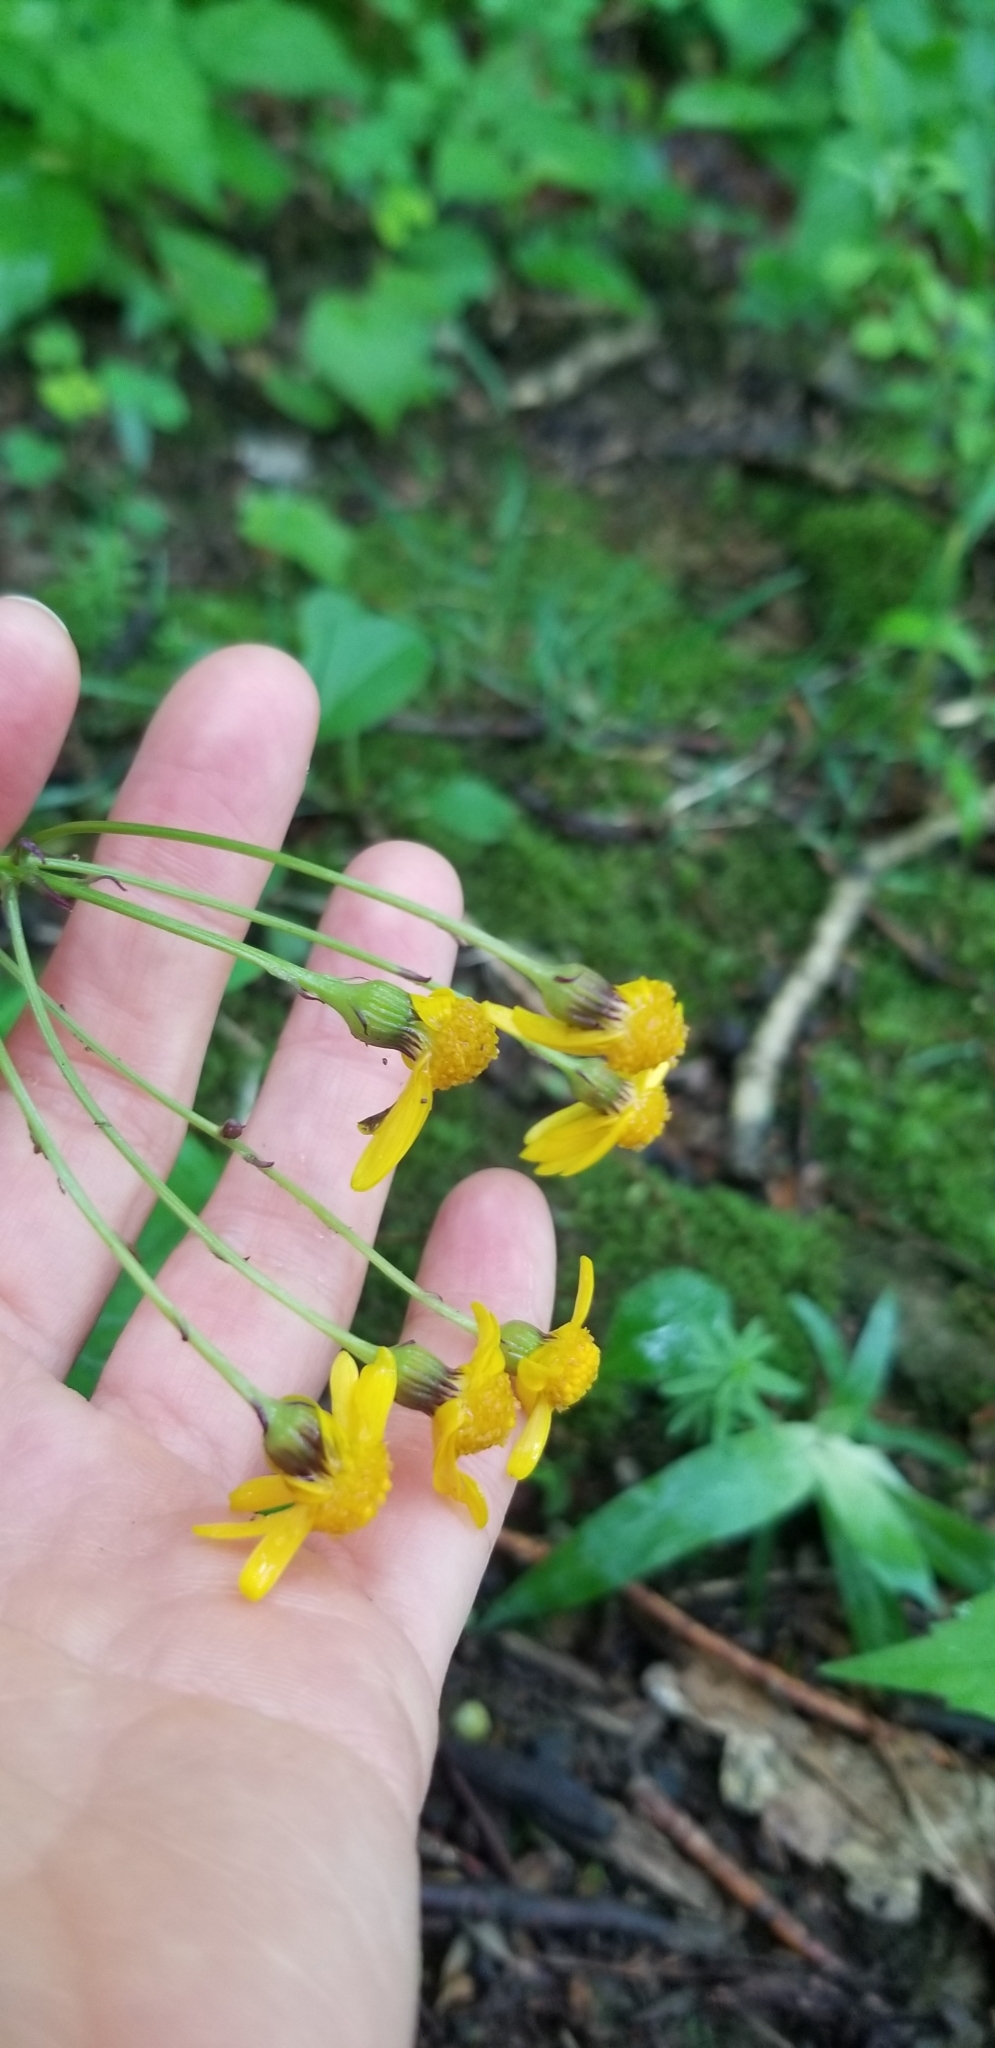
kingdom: Plantae
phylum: Tracheophyta
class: Magnoliopsida
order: Asterales
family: Asteraceae
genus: Packera
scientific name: Packera aurea
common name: Golden groundsel
